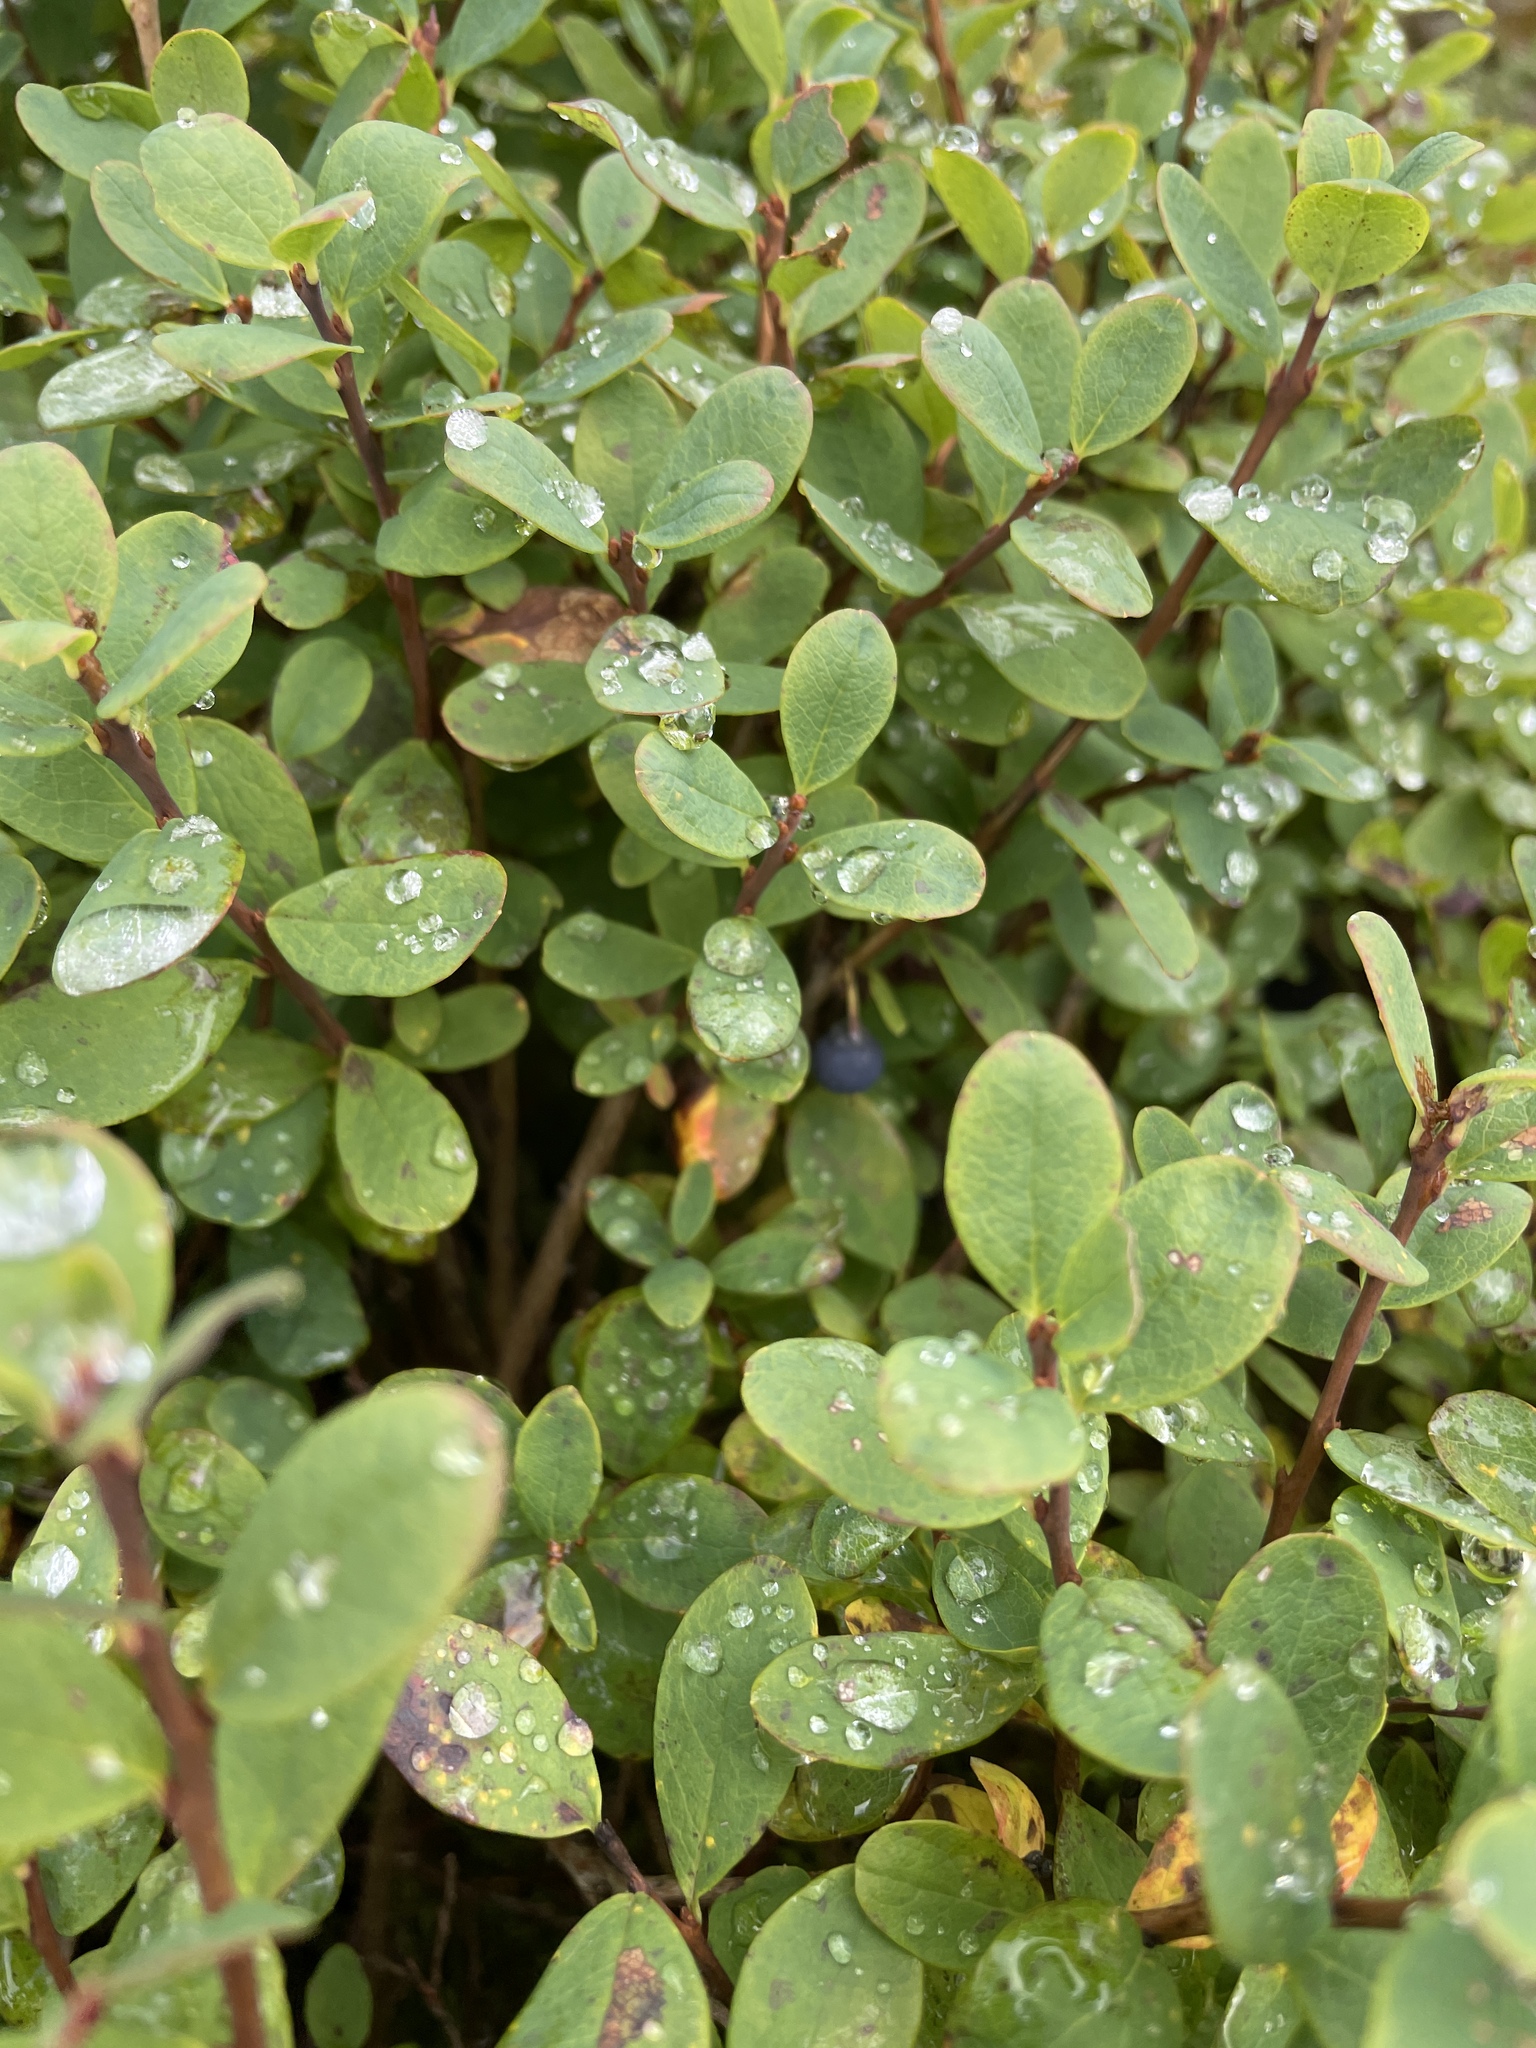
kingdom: Plantae
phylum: Tracheophyta
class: Magnoliopsida
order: Ericales
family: Ericaceae
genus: Vaccinium
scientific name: Vaccinium uliginosum
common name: Bog bilberry
